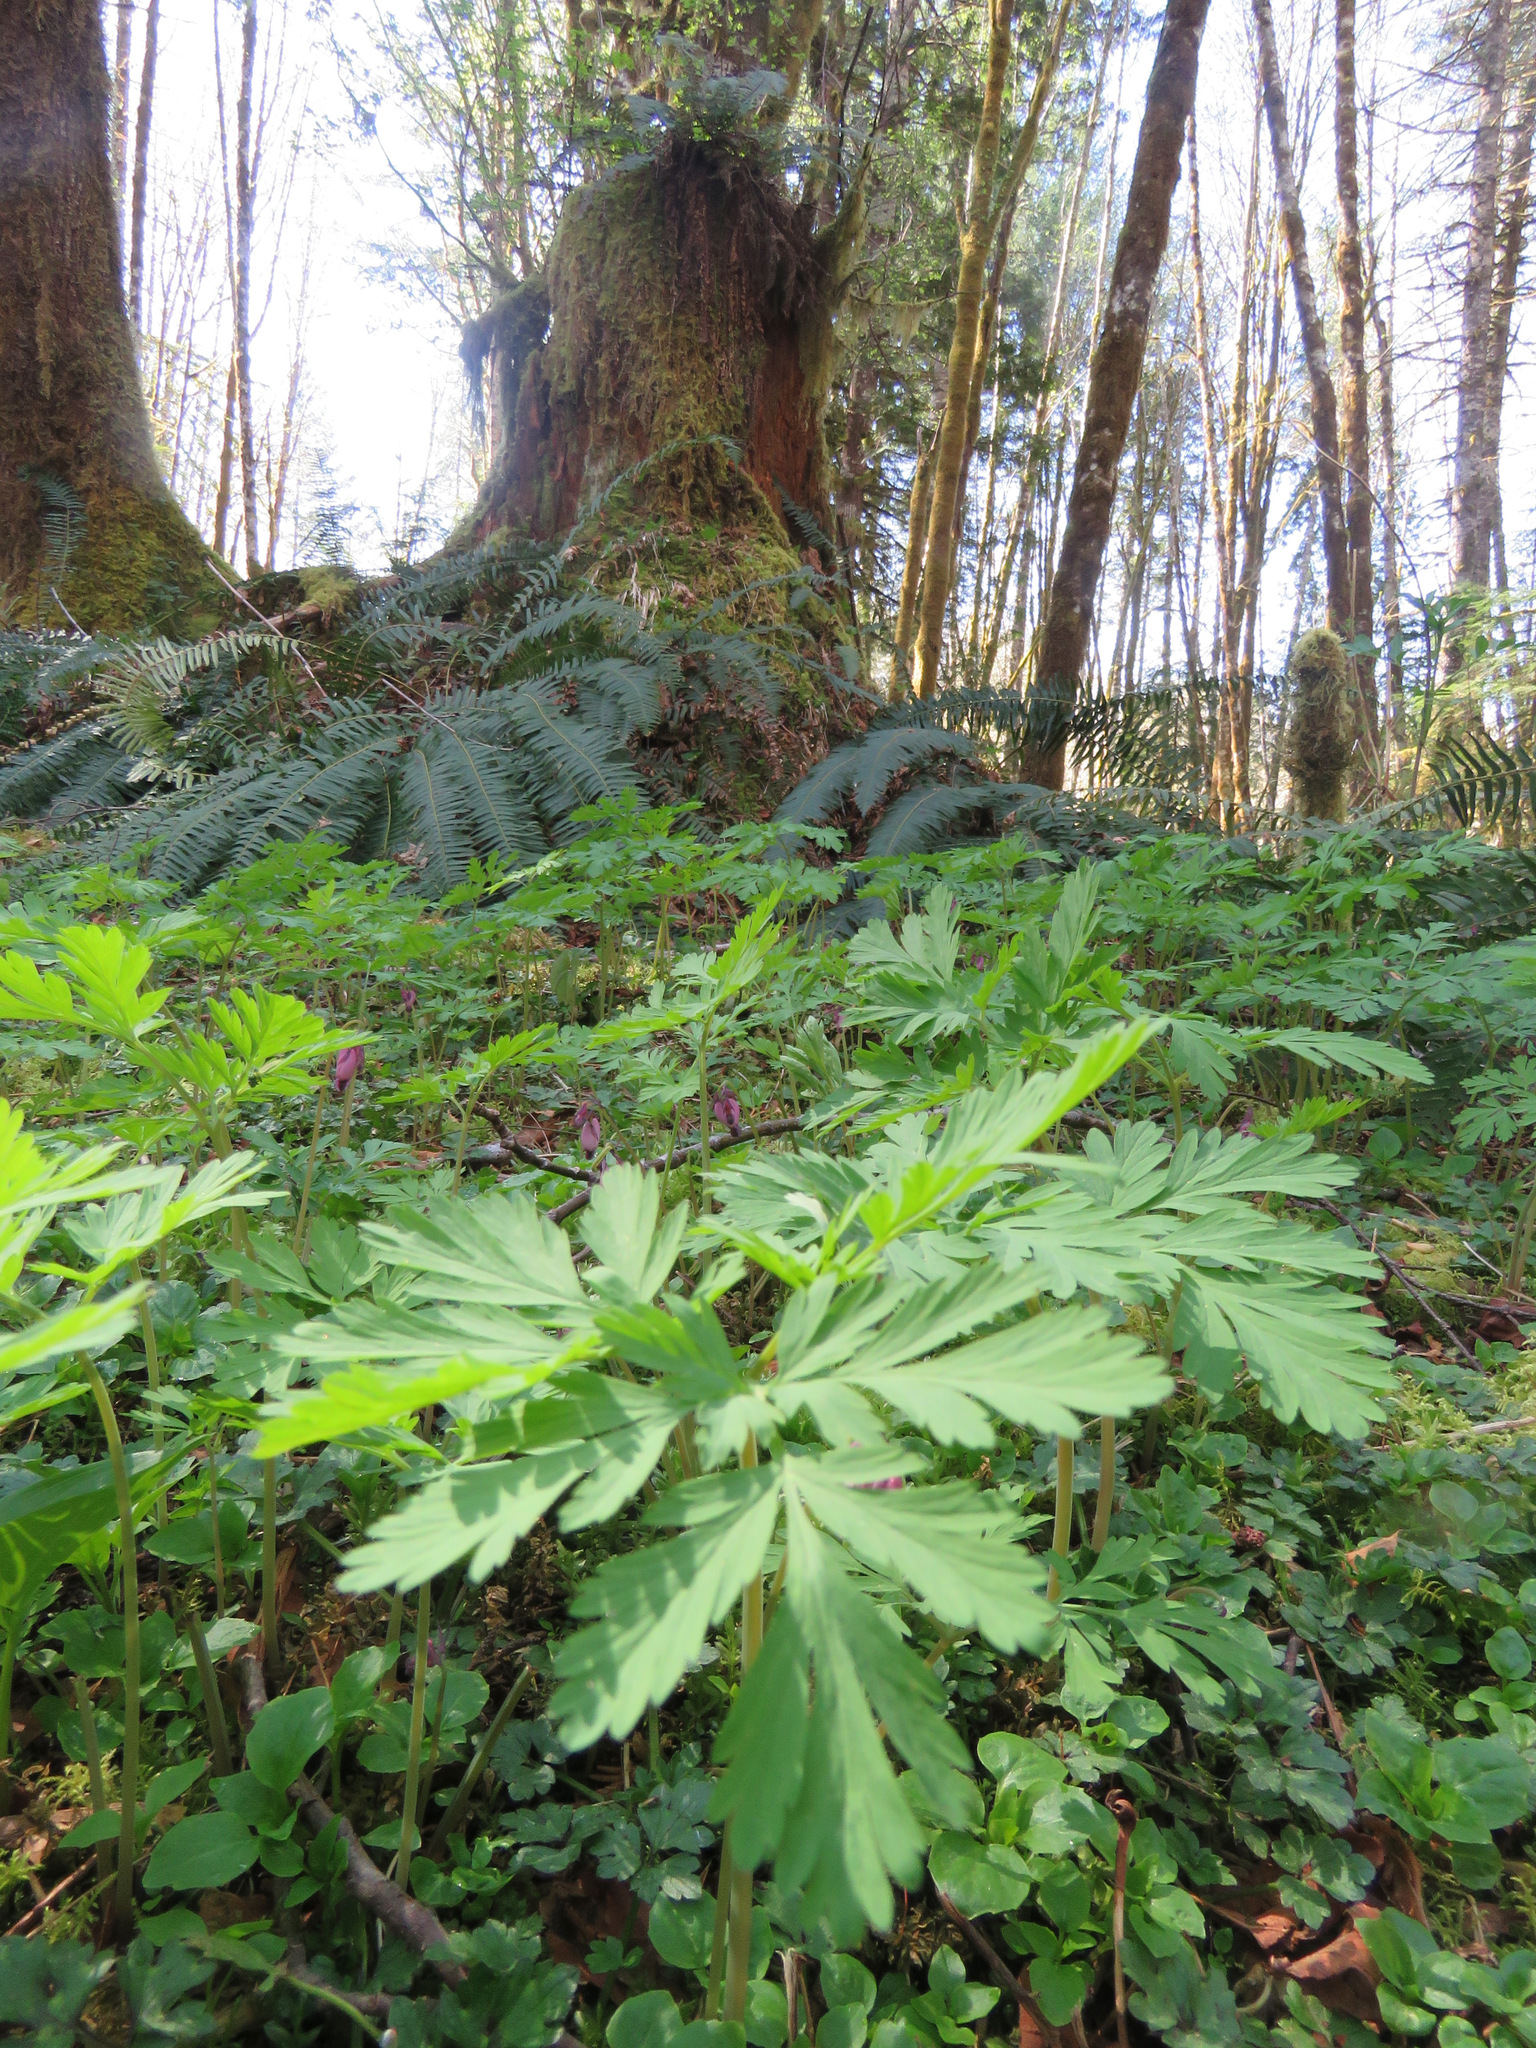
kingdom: Plantae
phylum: Tracheophyta
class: Magnoliopsida
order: Ranunculales
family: Papaveraceae
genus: Dicentra
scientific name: Dicentra formosa
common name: Bleeding-heart
